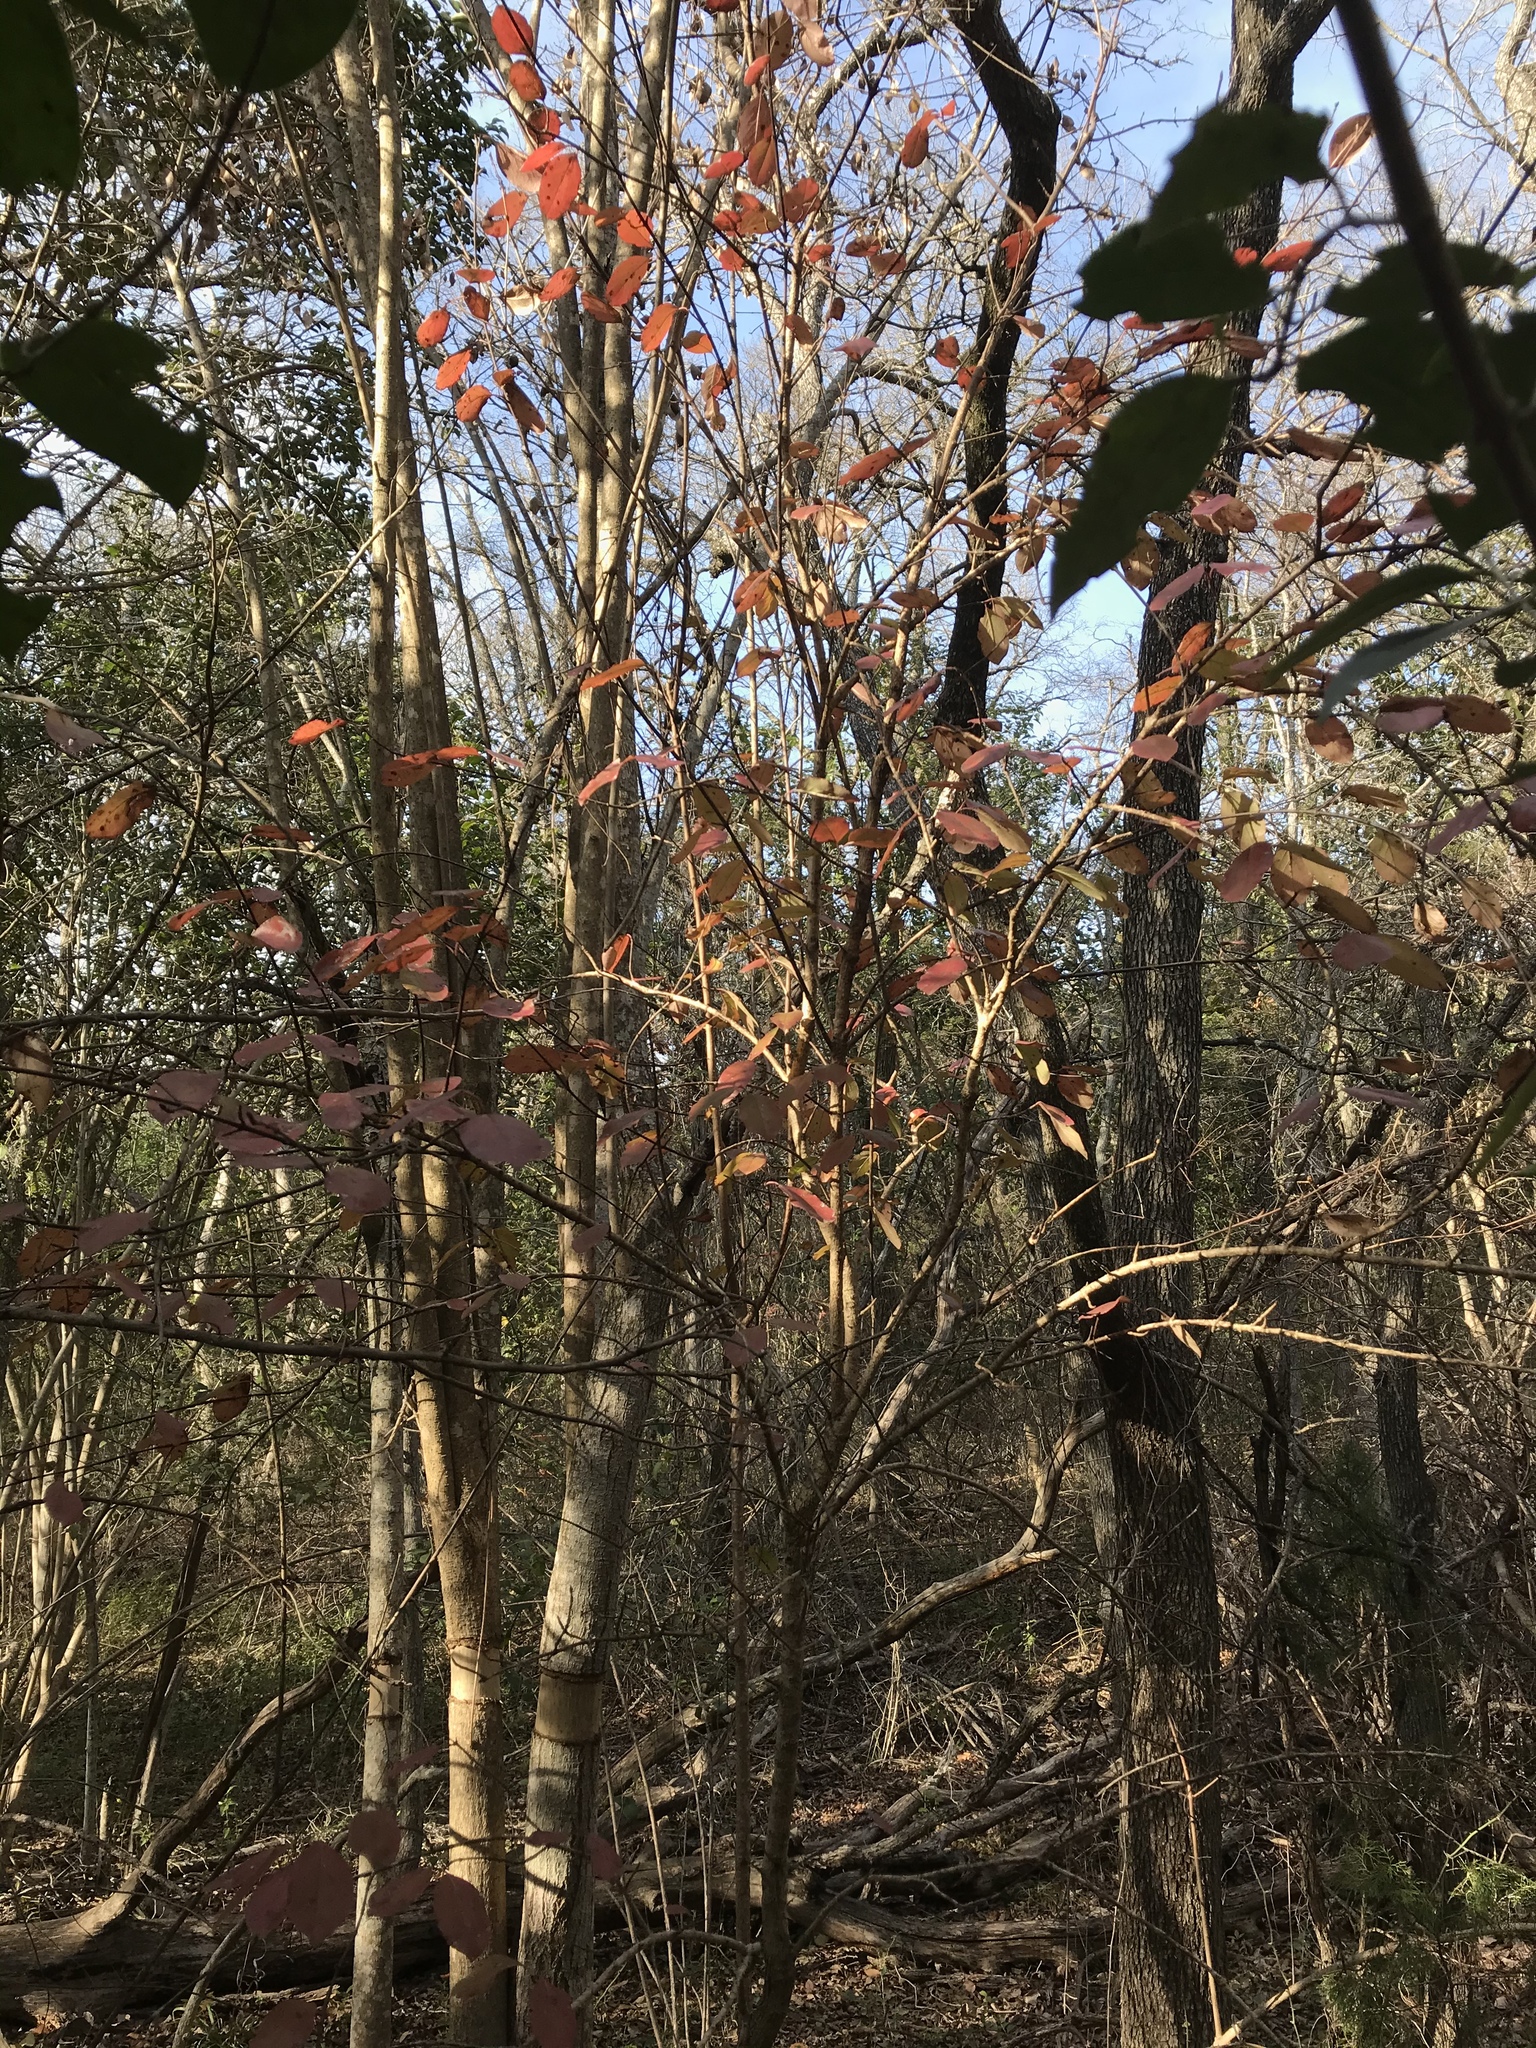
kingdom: Plantae
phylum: Tracheophyta
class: Magnoliopsida
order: Dipsacales
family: Viburnaceae
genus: Viburnum
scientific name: Viburnum rufidulum
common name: Blue haw
